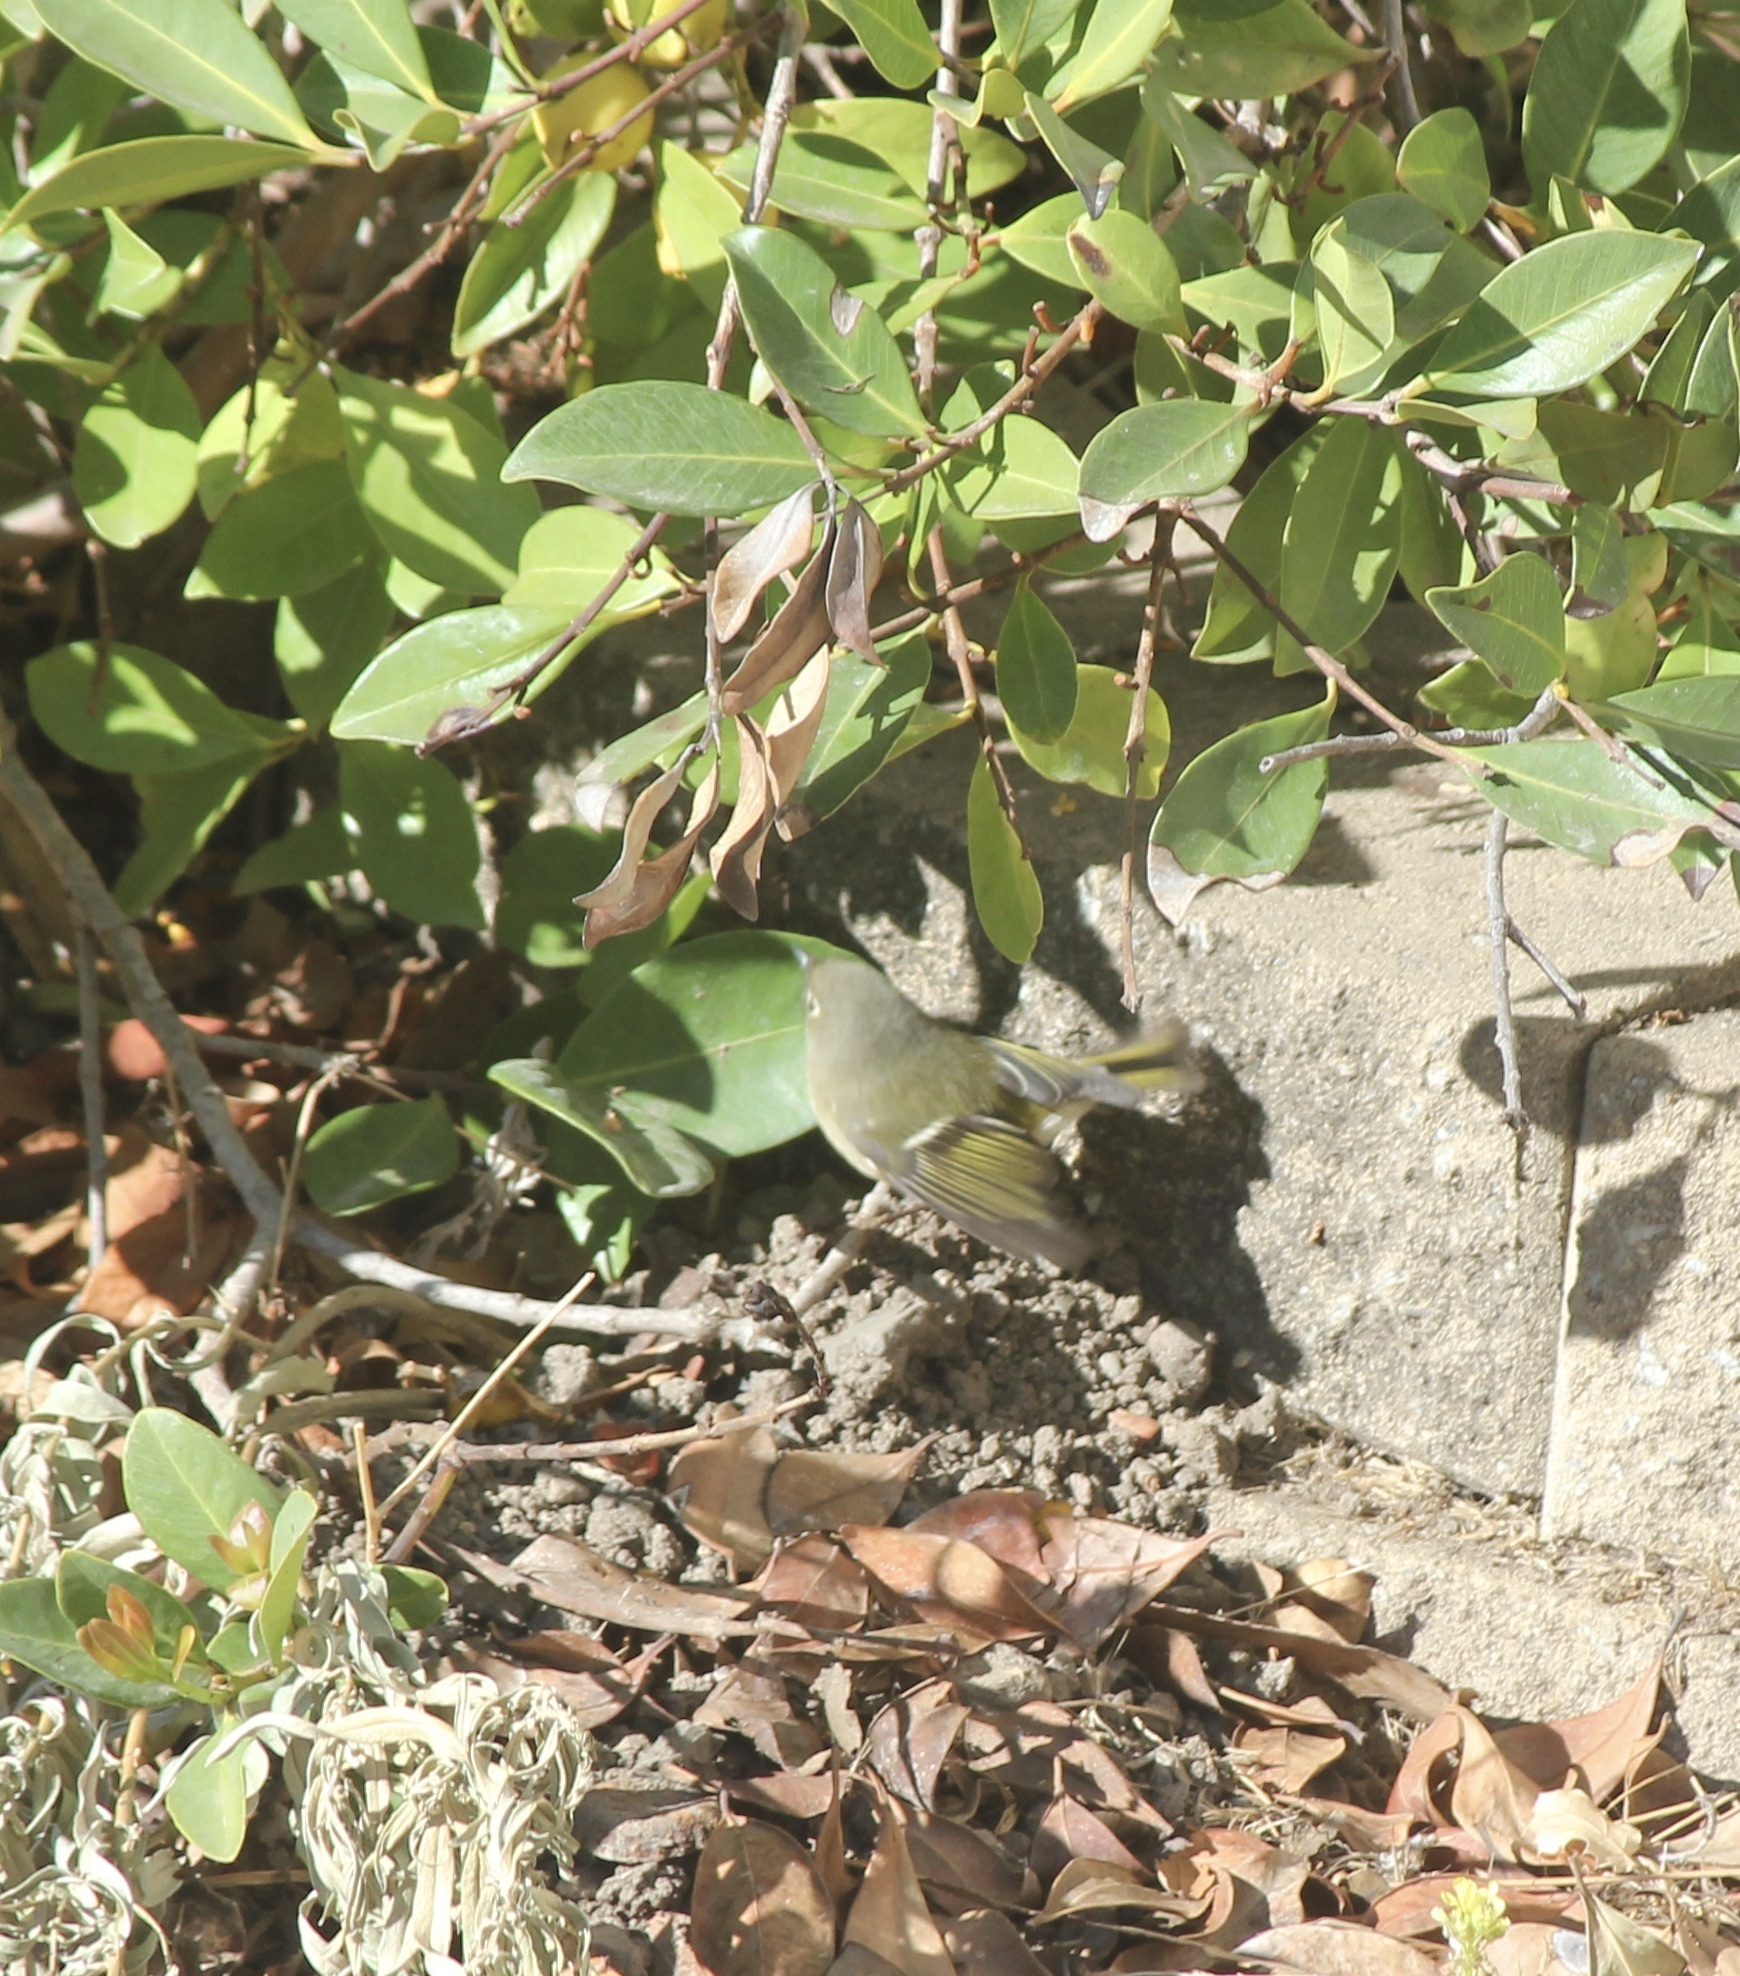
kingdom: Animalia
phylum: Chordata
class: Aves
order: Passeriformes
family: Regulidae
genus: Regulus
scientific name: Regulus calendula
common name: Ruby-crowned kinglet
